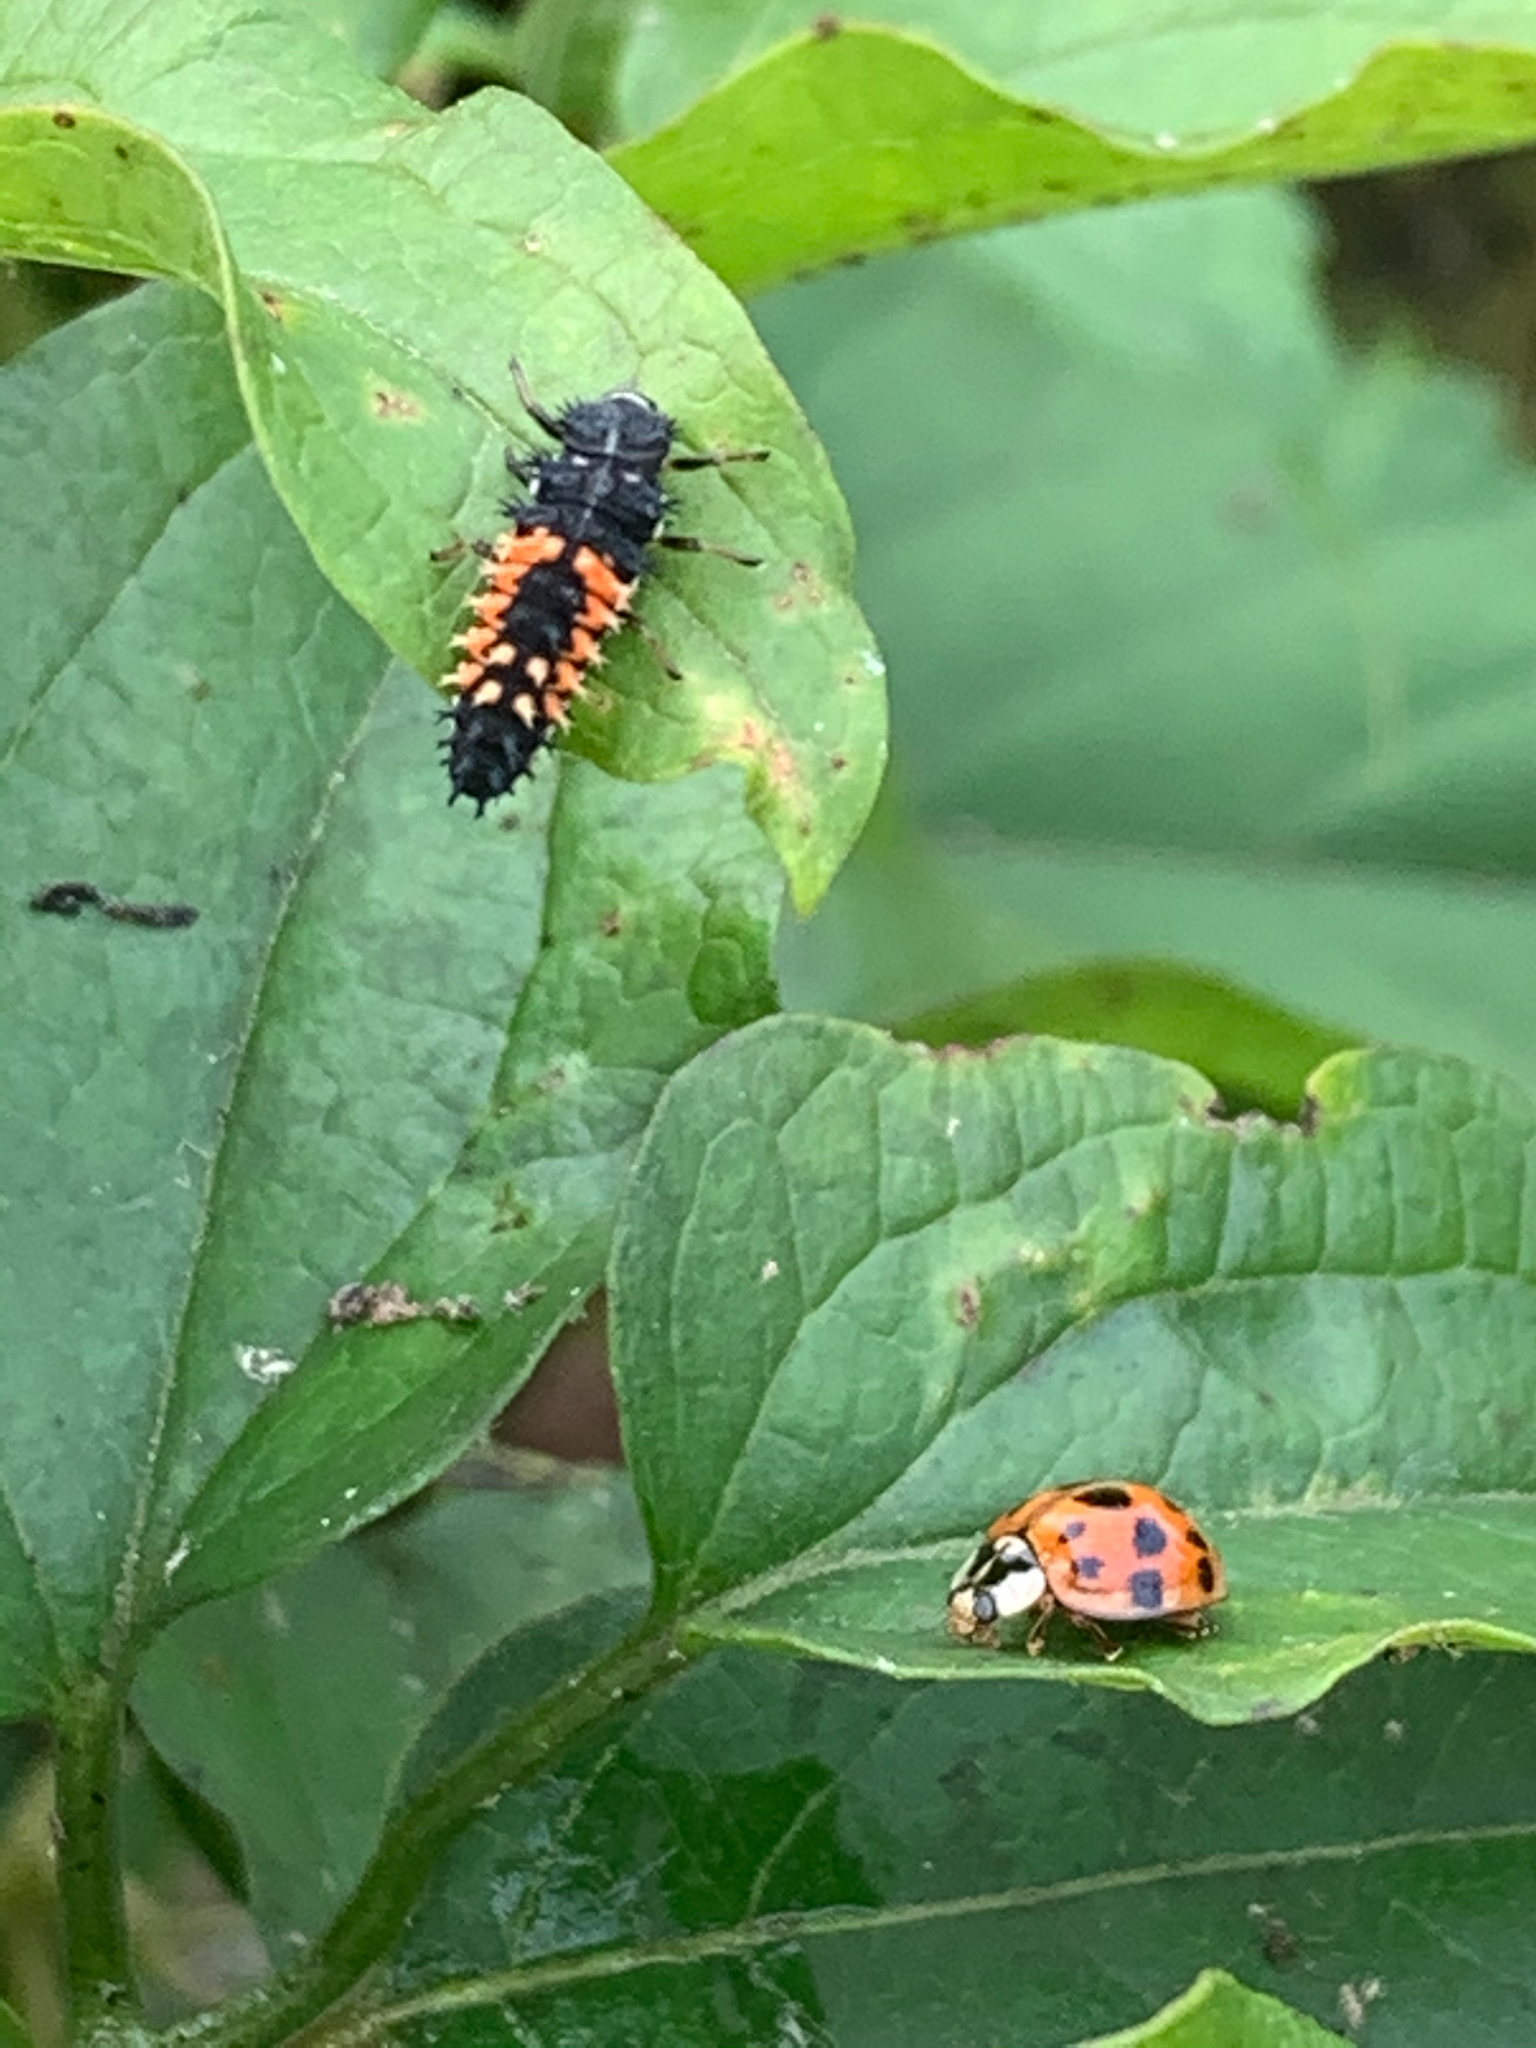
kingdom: Animalia
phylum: Arthropoda
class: Insecta
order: Coleoptera
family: Coccinellidae
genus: Harmonia
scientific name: Harmonia axyridis
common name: Harlequin ladybird
